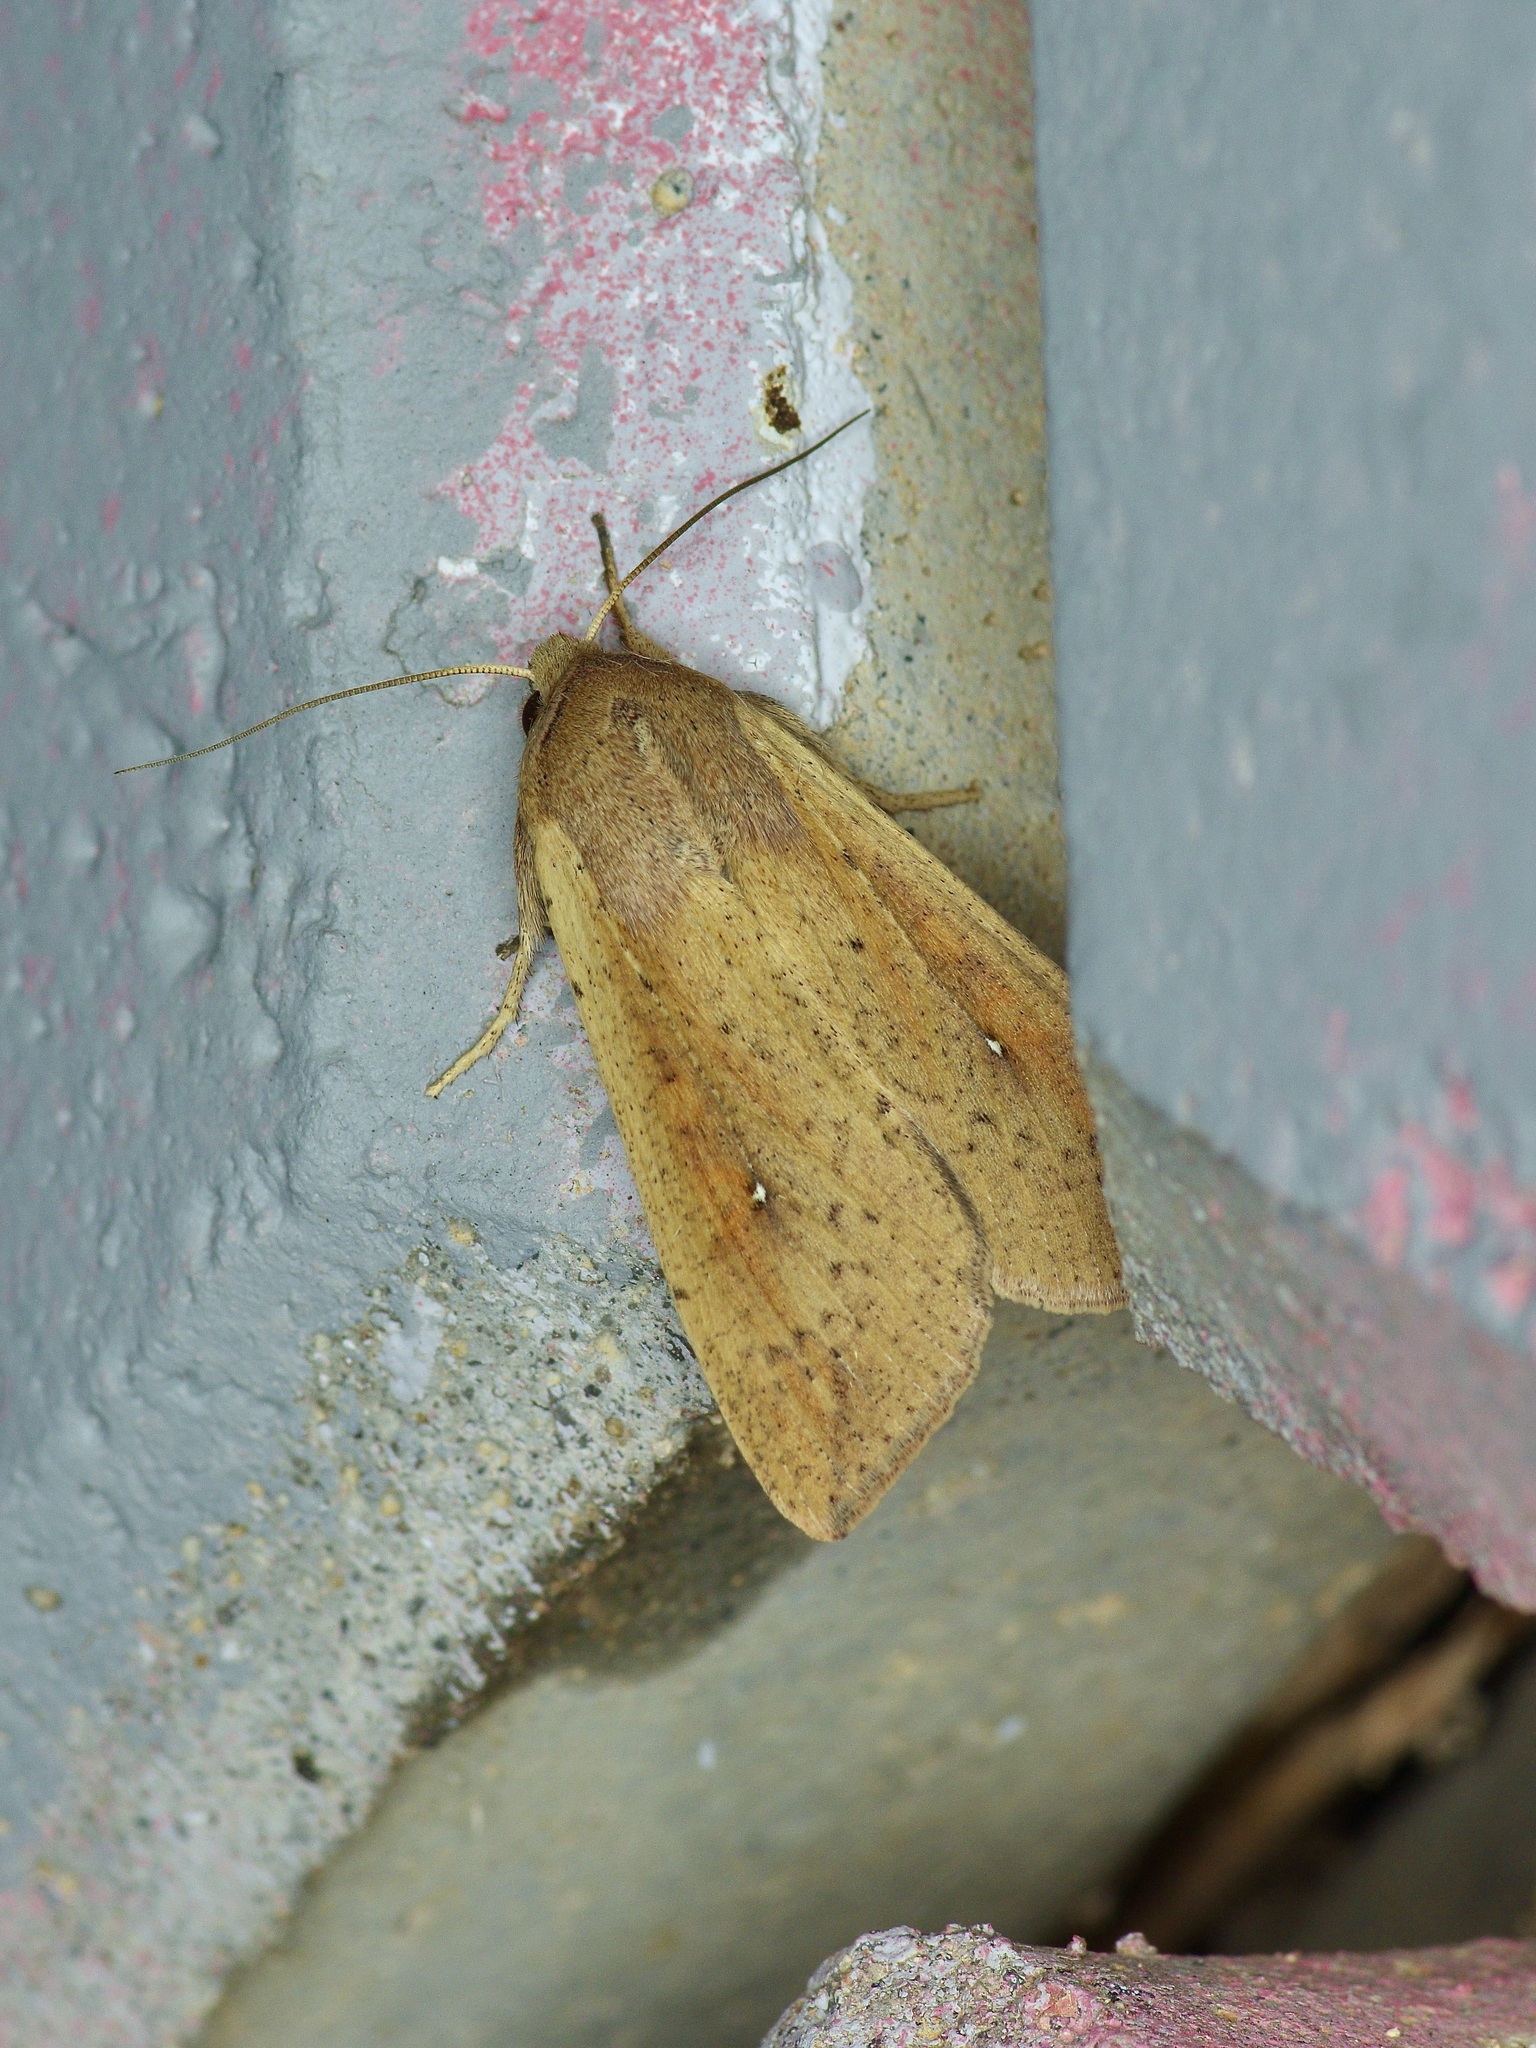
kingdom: Animalia
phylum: Arthropoda
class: Insecta
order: Lepidoptera
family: Noctuidae
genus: Mythimna
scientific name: Mythimna unipuncta
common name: White-speck
